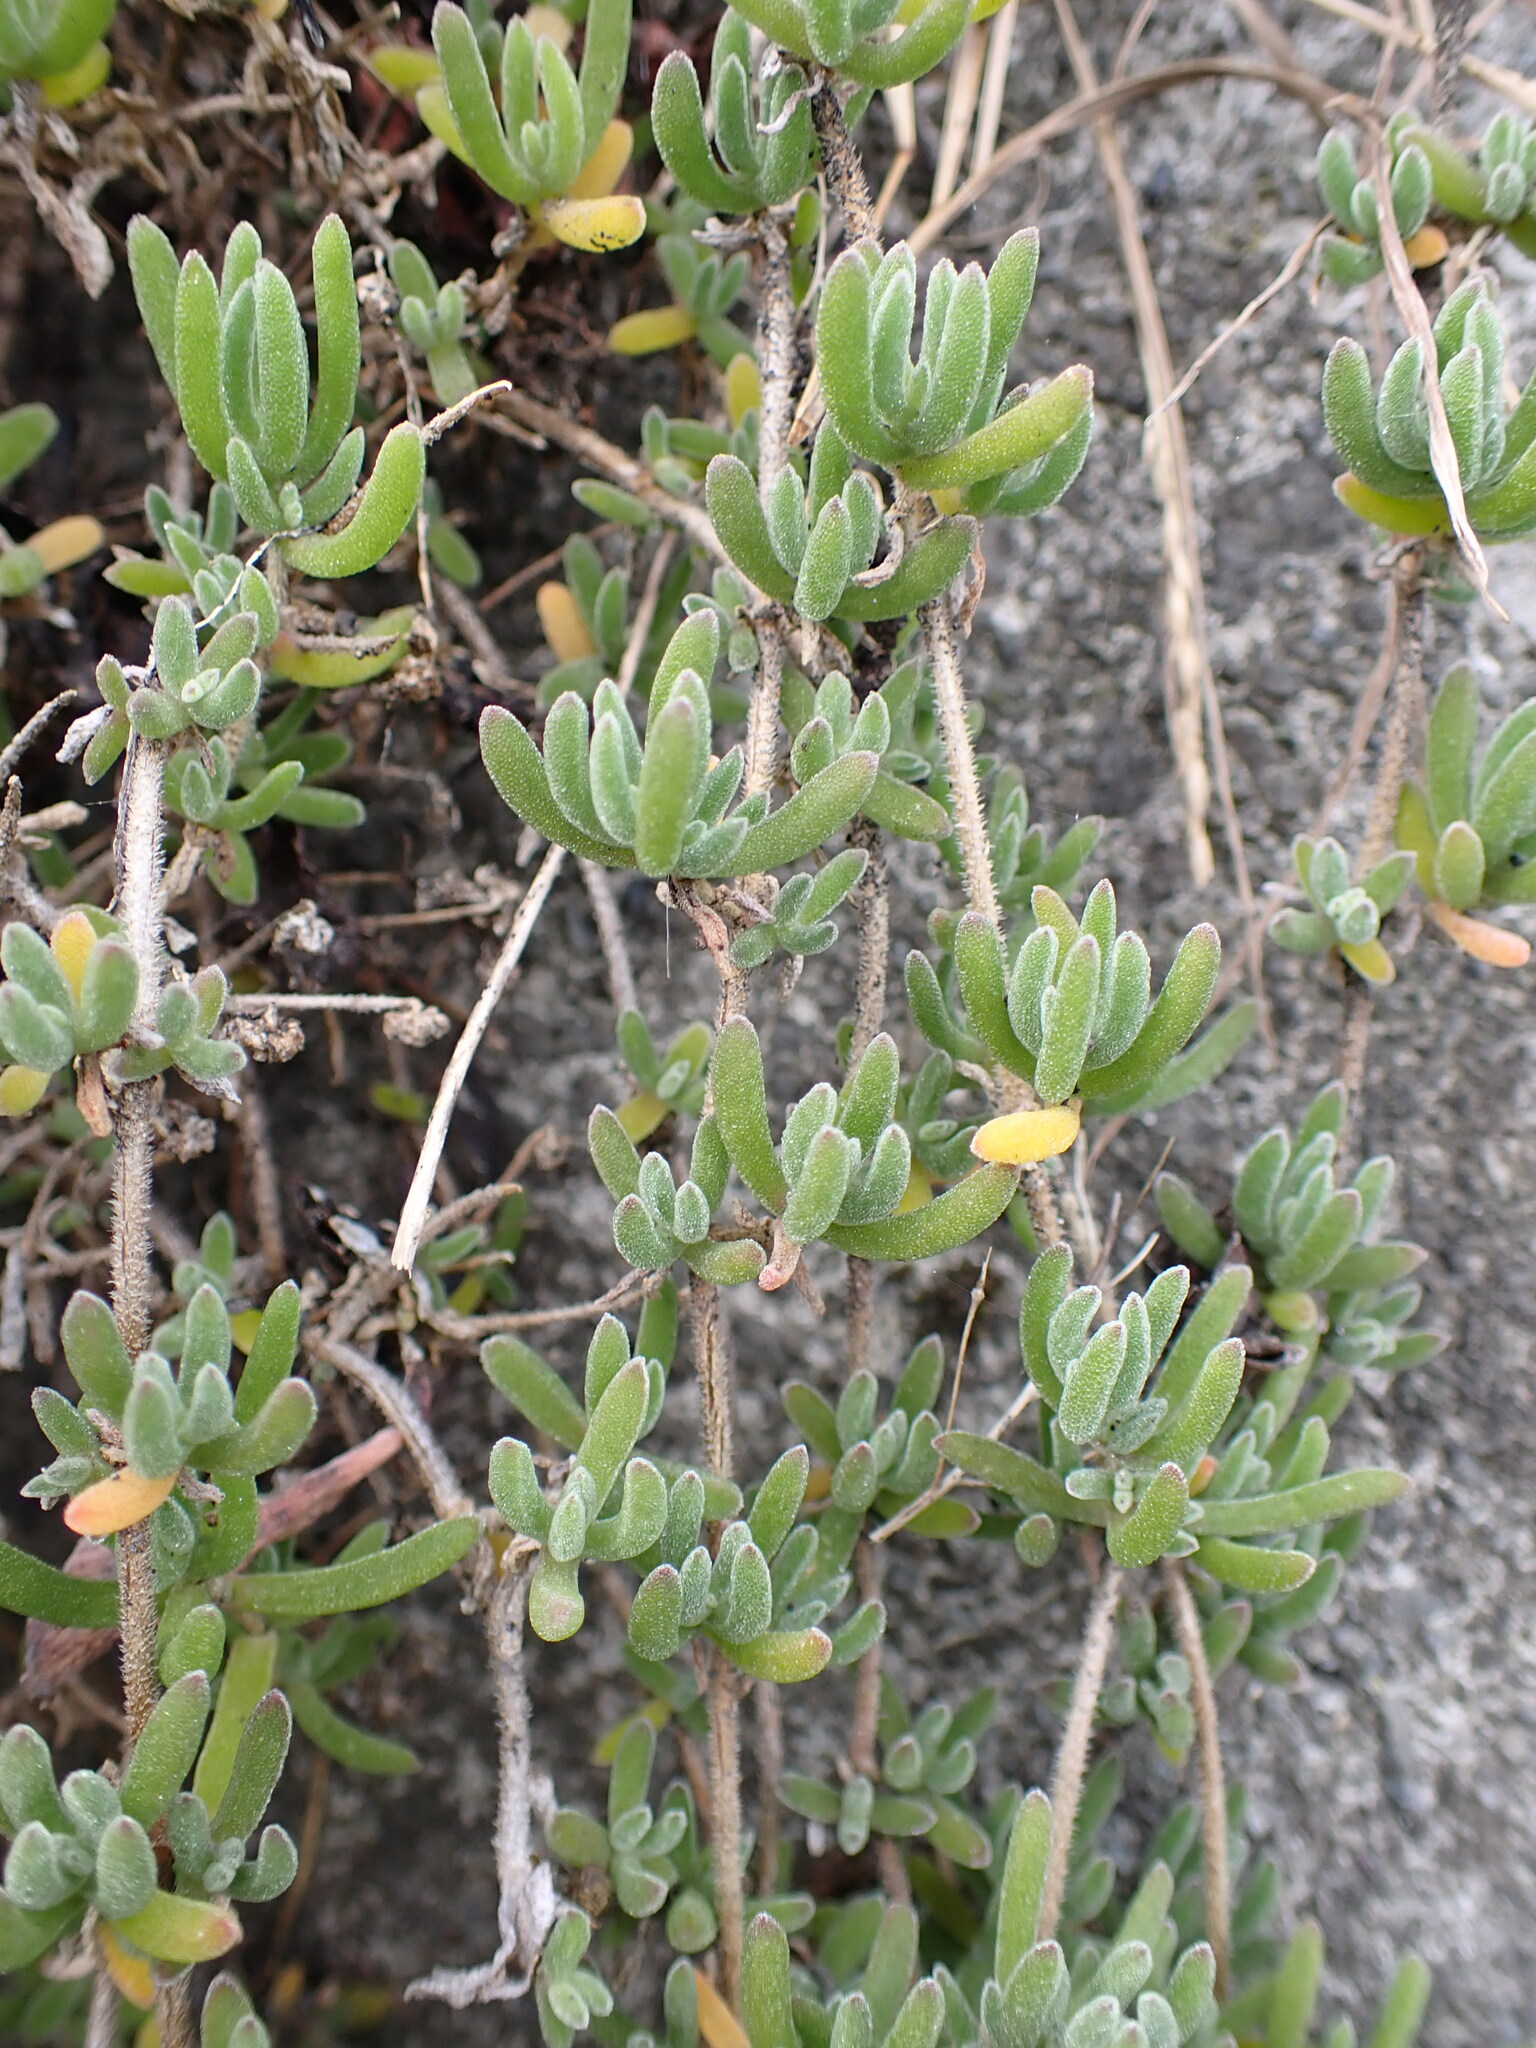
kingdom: Plantae
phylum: Tracheophyta
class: Magnoliopsida
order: Caryophyllales
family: Aizoaceae
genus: Drosanthemum
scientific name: Drosanthemum floribundum
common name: Pale dewplant
